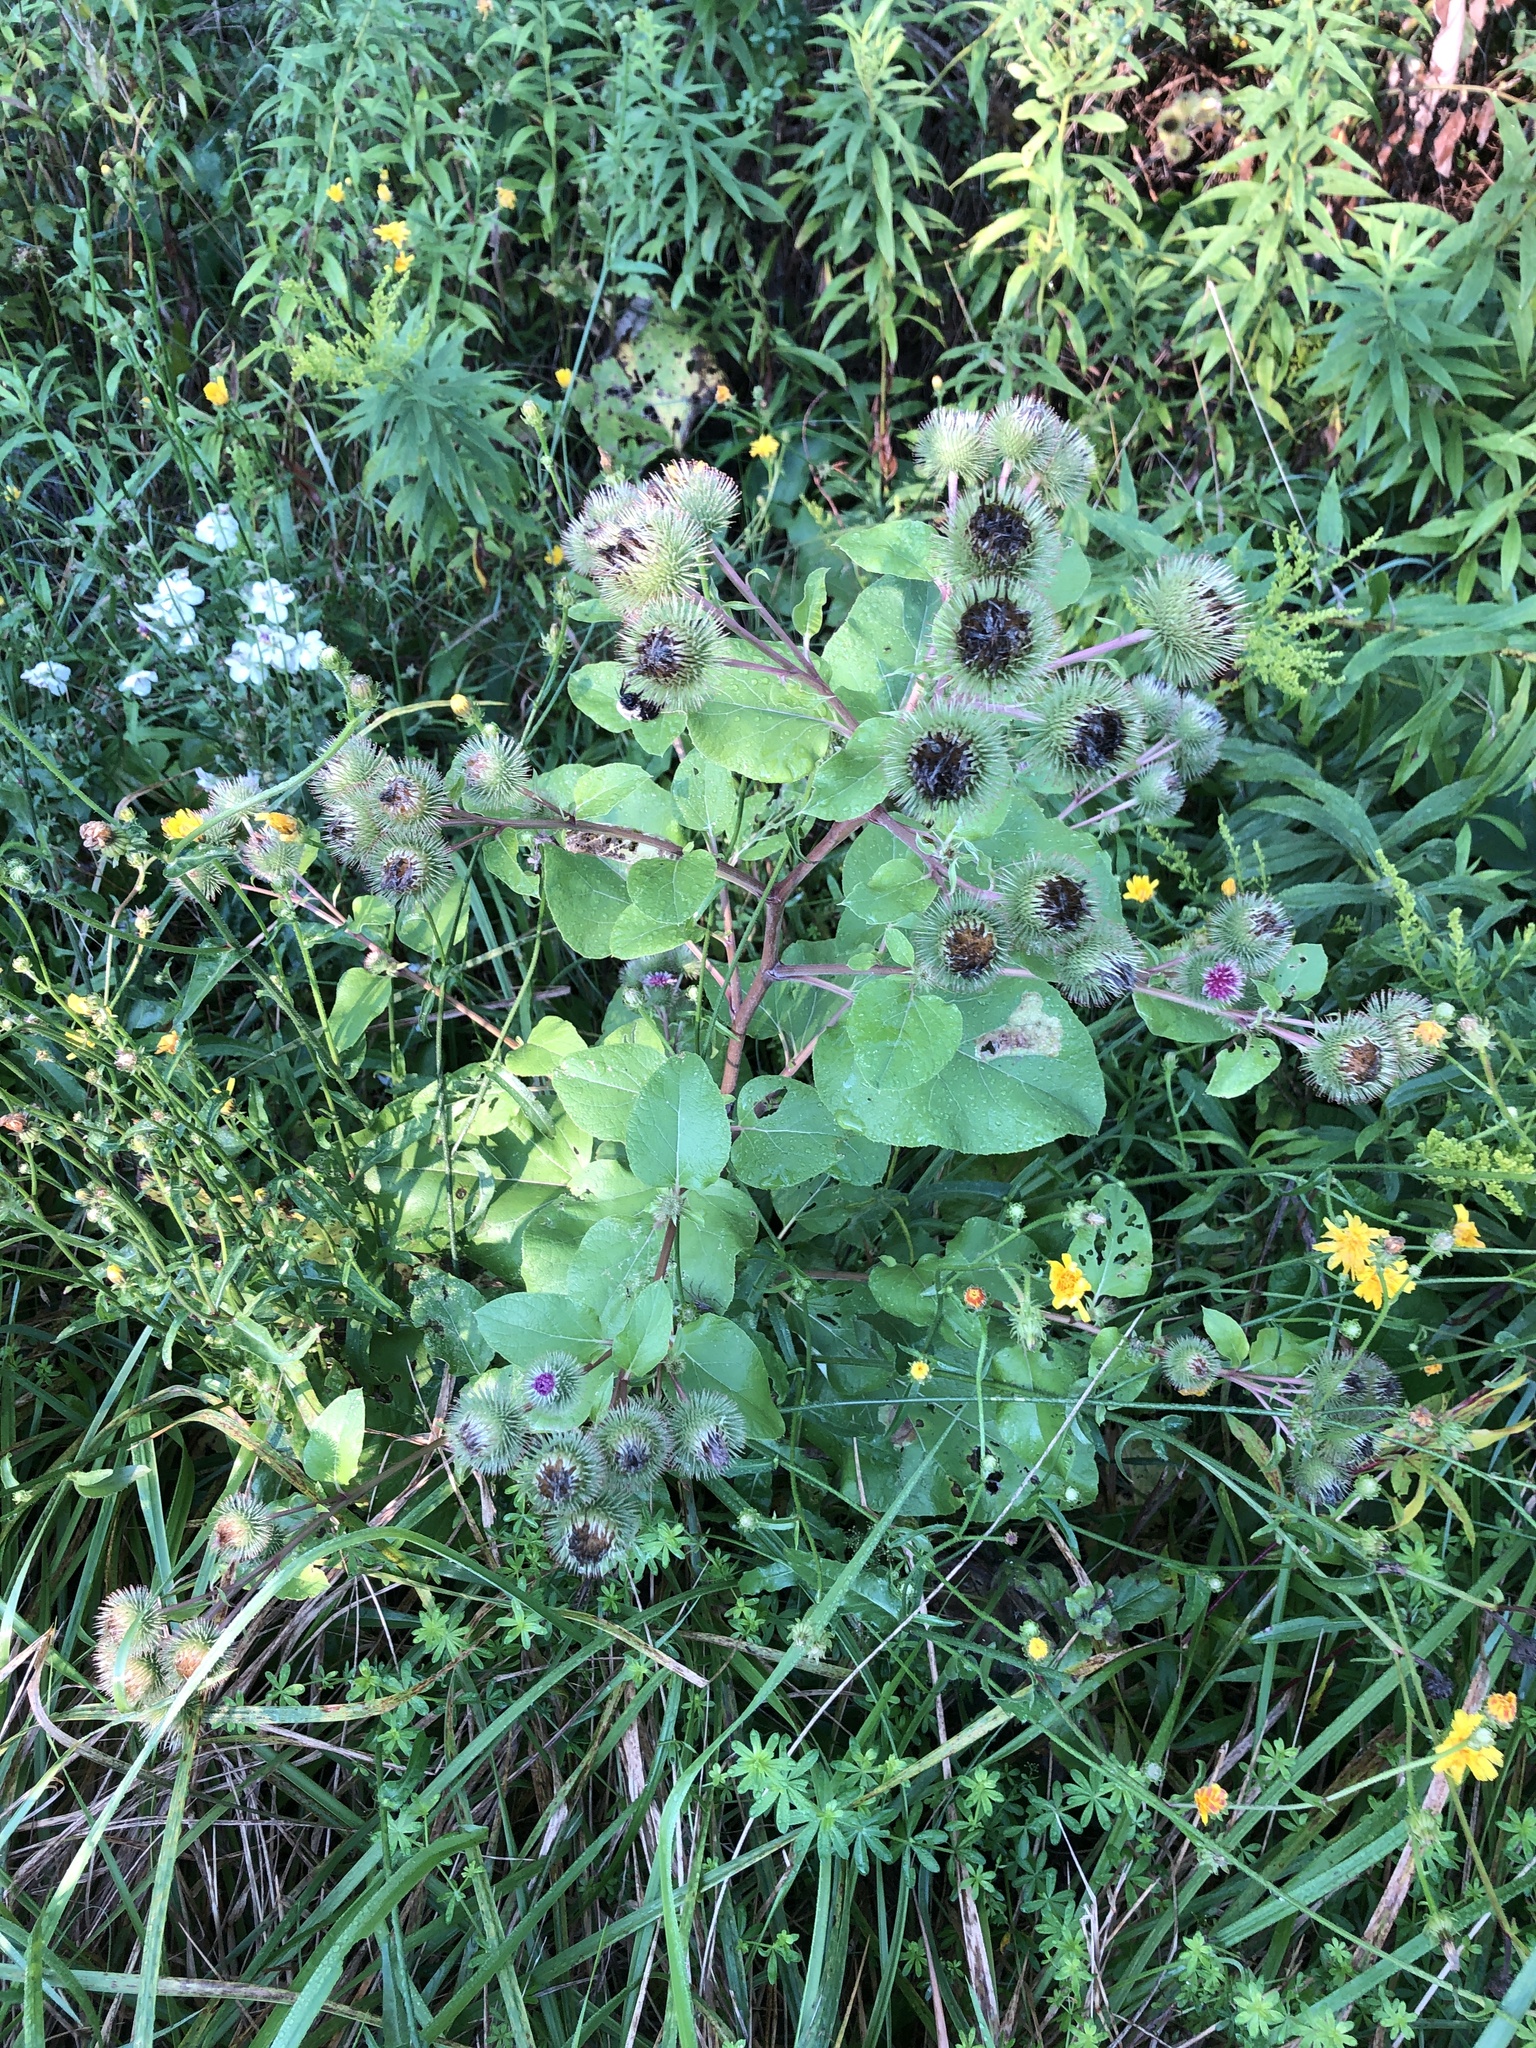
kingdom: Plantae
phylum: Tracheophyta
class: Magnoliopsida
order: Asterales
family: Asteraceae
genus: Arctium
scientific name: Arctium lappa
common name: Greater burdock
